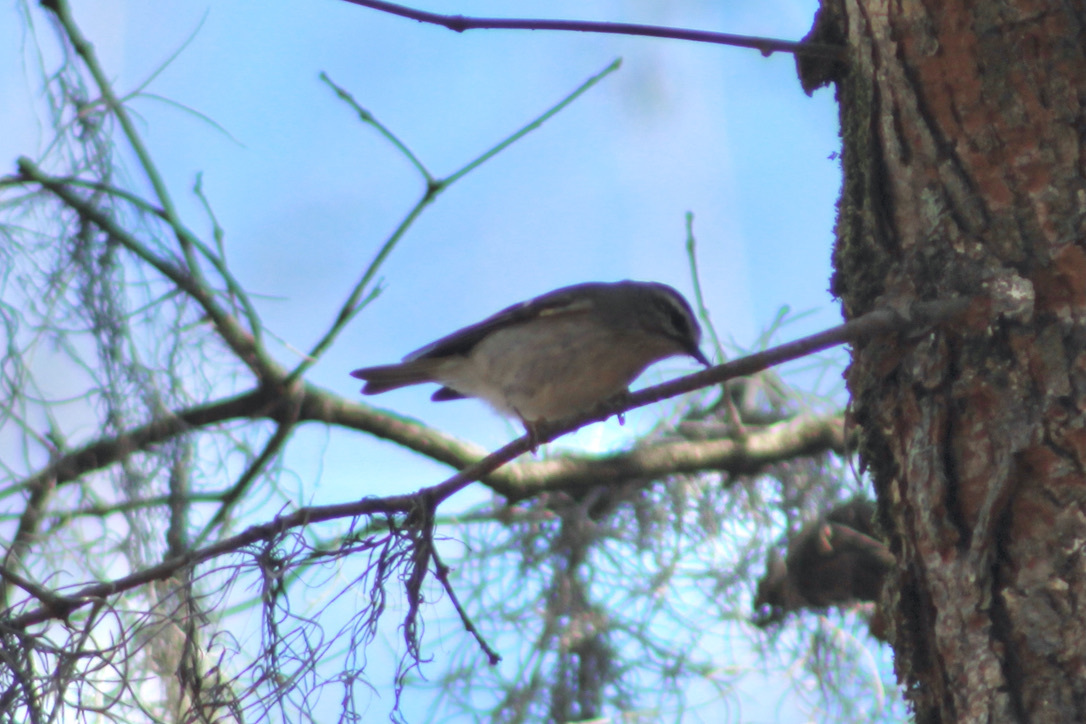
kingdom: Animalia
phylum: Chordata
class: Aves
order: Passeriformes
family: Regulidae
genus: Regulus
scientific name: Regulus satrapa
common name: Golden-crowned kinglet
